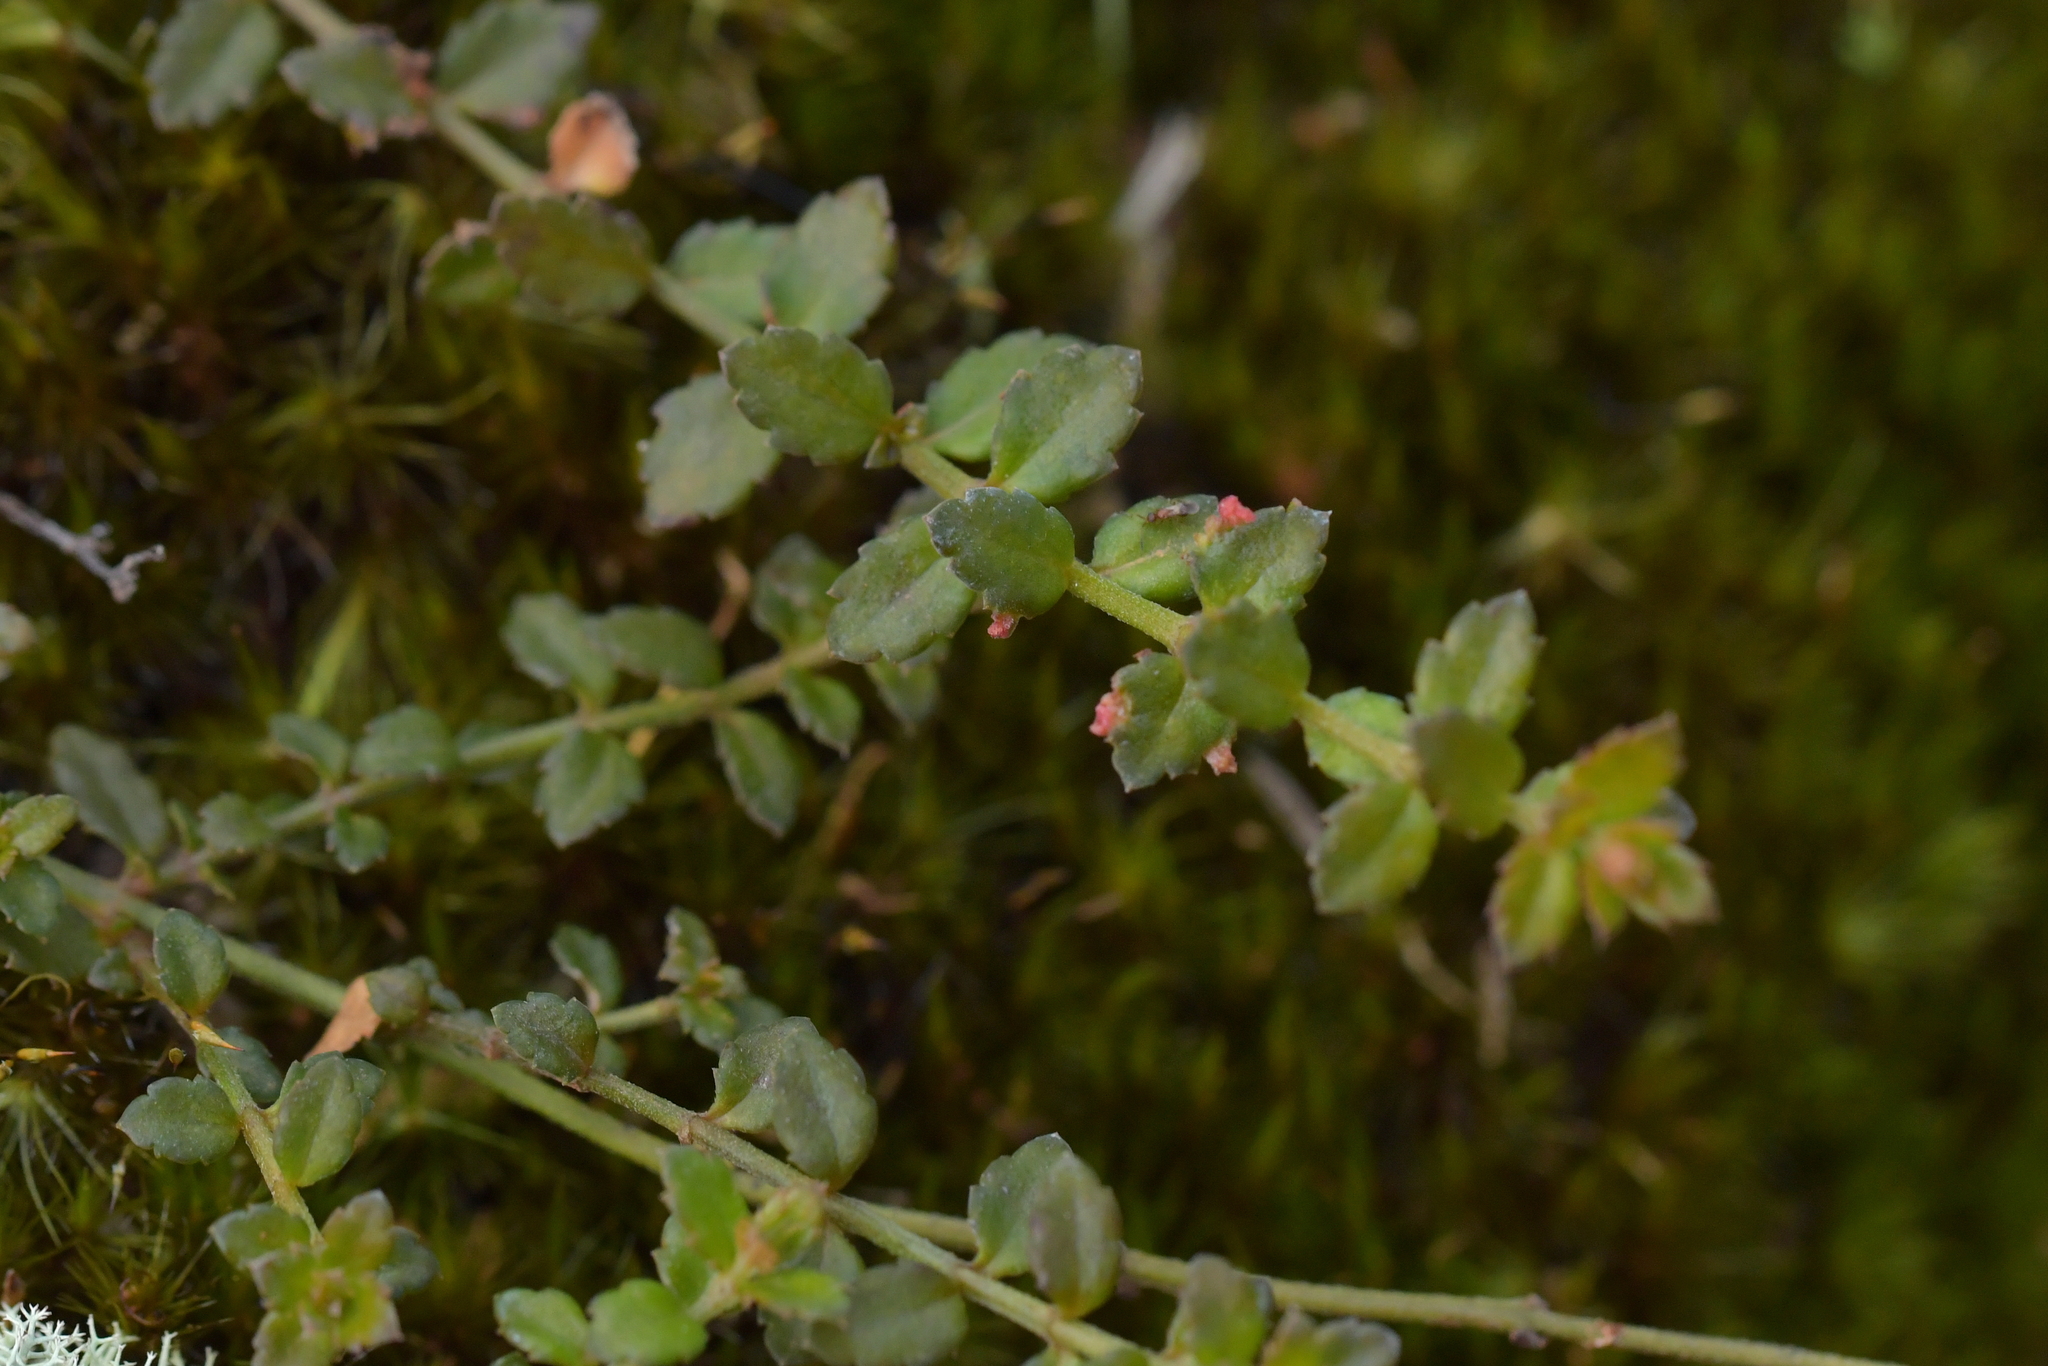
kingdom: Plantae
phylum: Tracheophyta
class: Magnoliopsida
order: Saxifragales
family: Haloragaceae
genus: Gonocarpus
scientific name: Gonocarpus incanus
